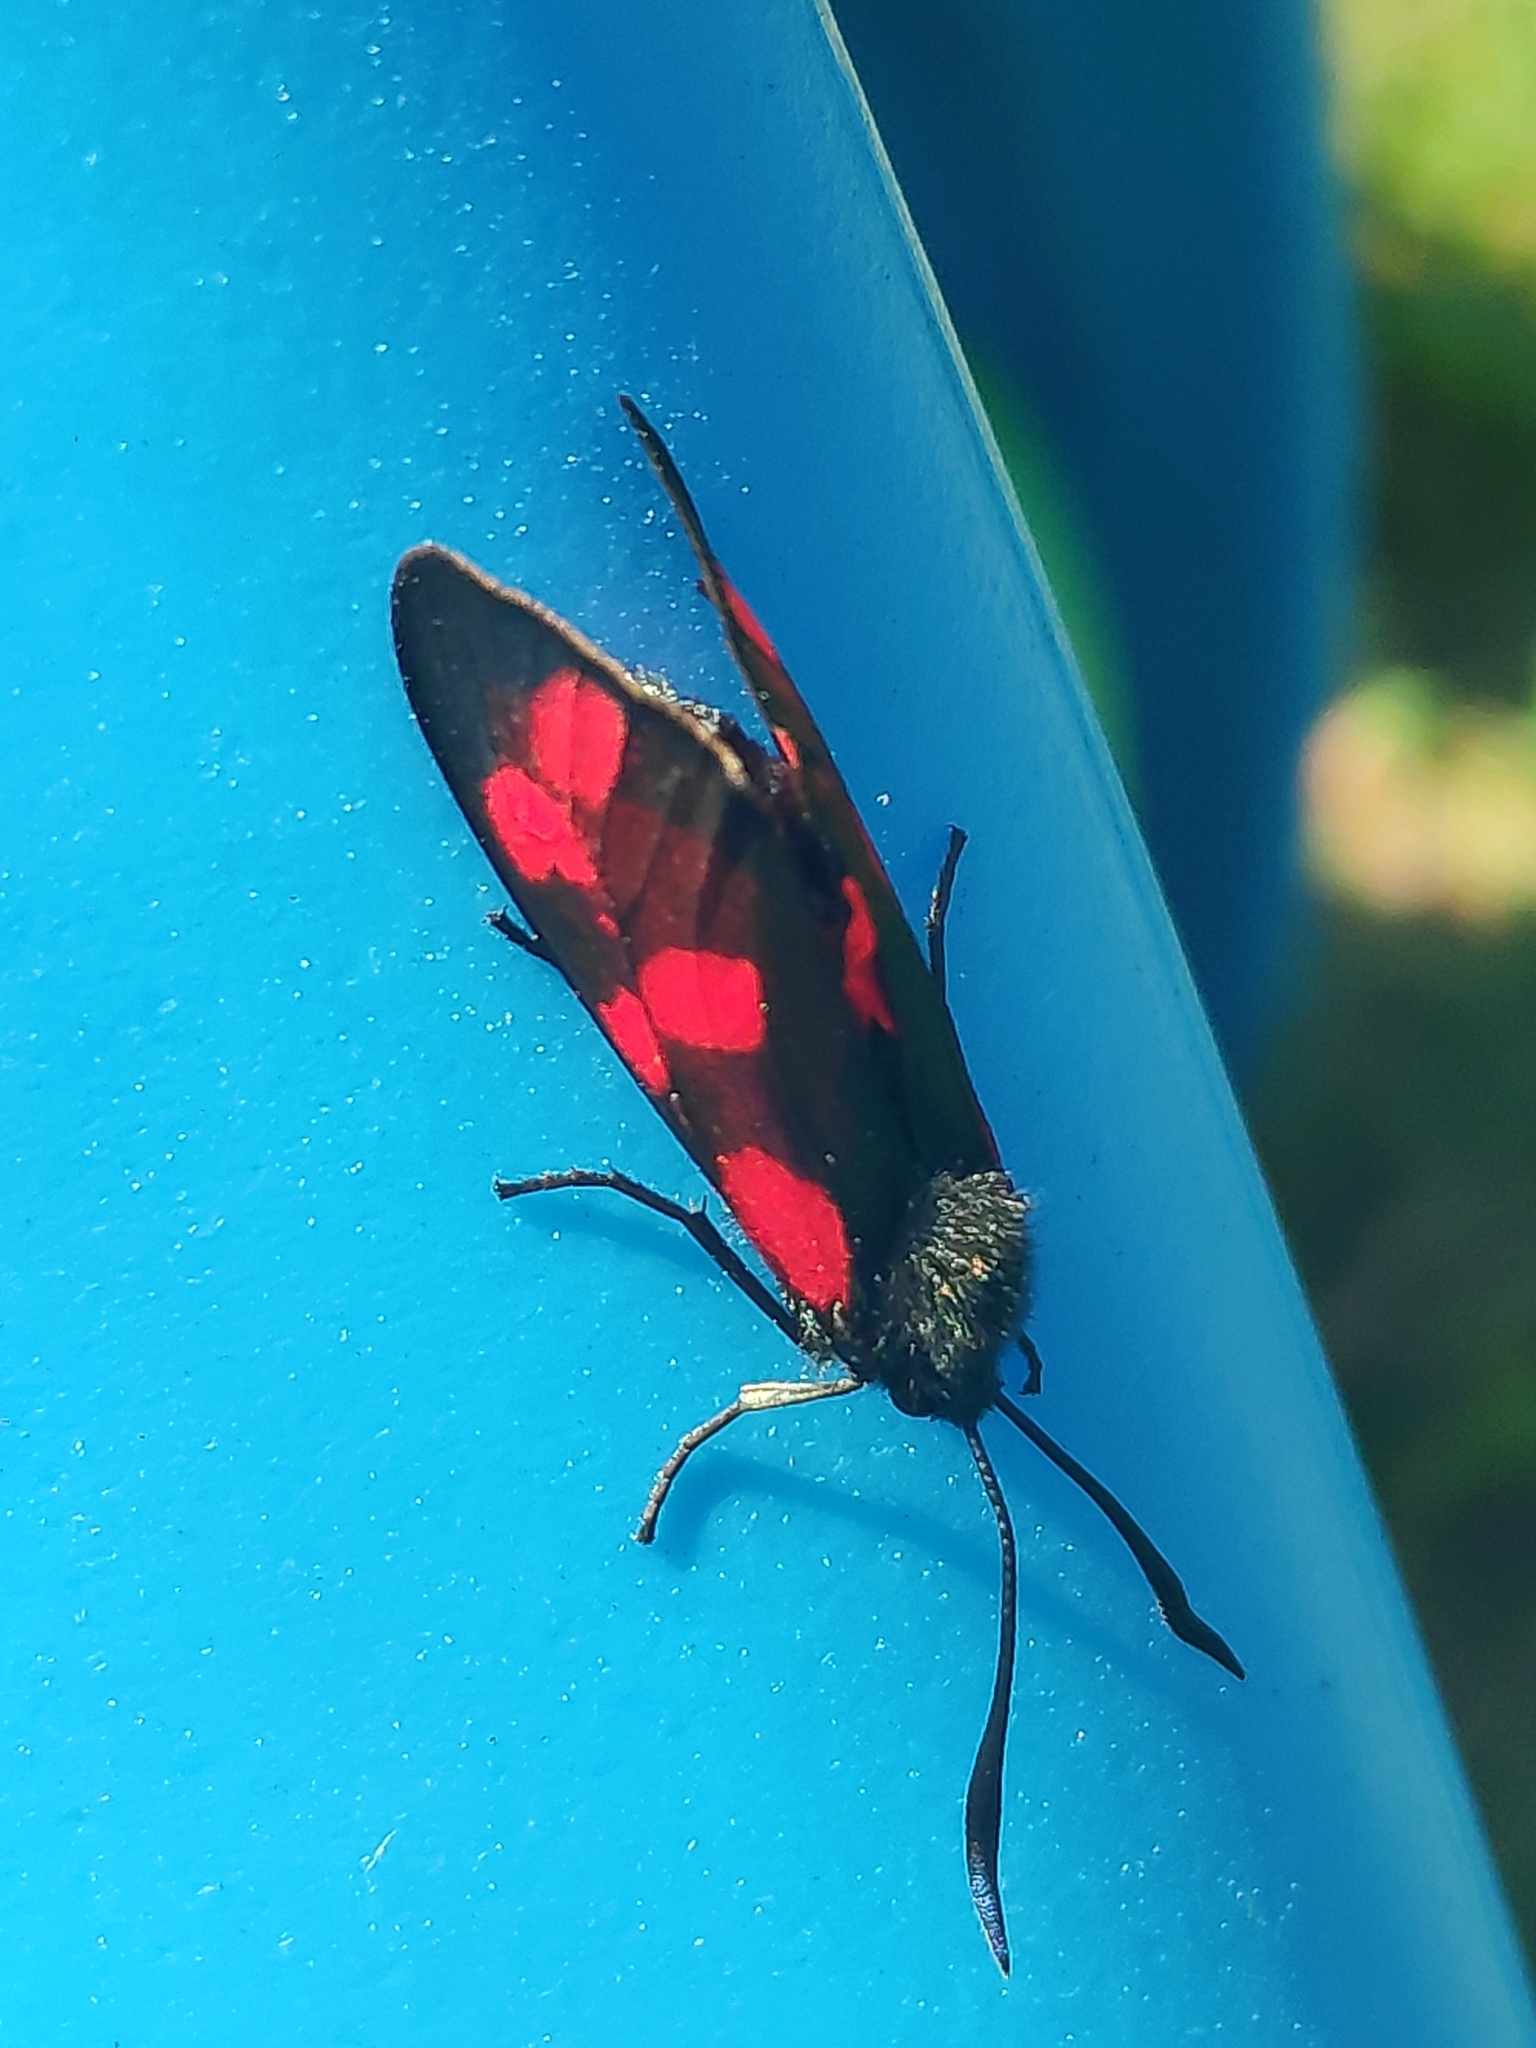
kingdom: Animalia
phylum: Arthropoda
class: Insecta
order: Lepidoptera
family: Zygaenidae
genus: Zygaena
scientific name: Zygaena filipendulae
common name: Six-spot burnet
